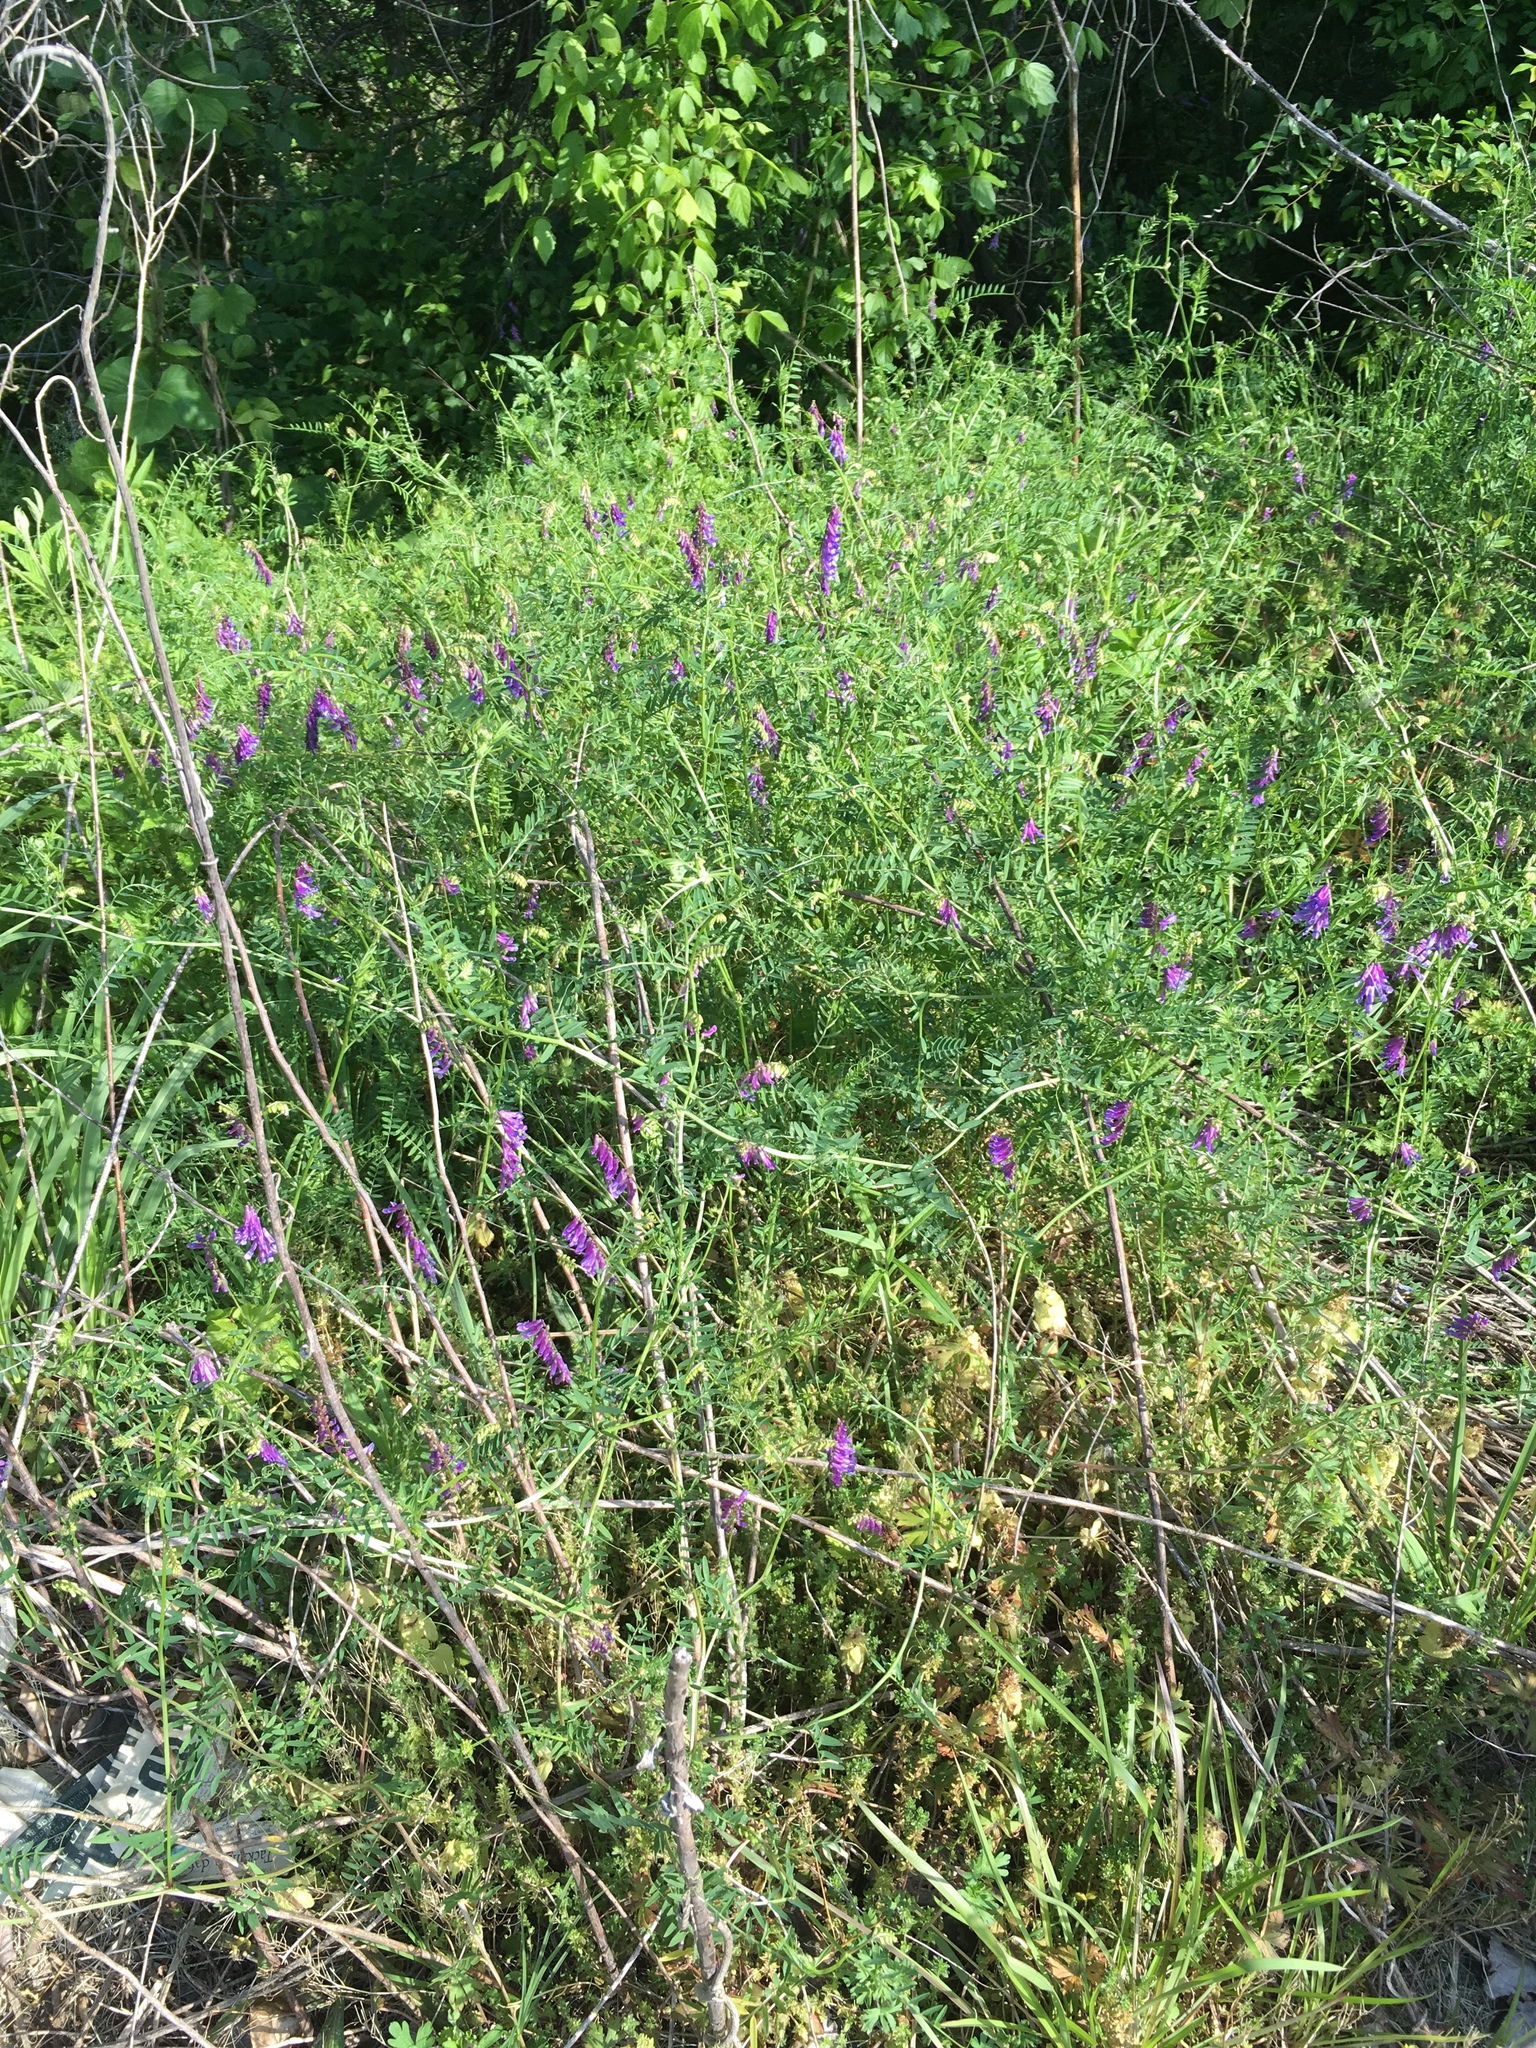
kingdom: Plantae
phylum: Tracheophyta
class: Magnoliopsida
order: Fabales
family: Fabaceae
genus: Vicia
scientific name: Vicia villosa
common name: Fodder vetch
